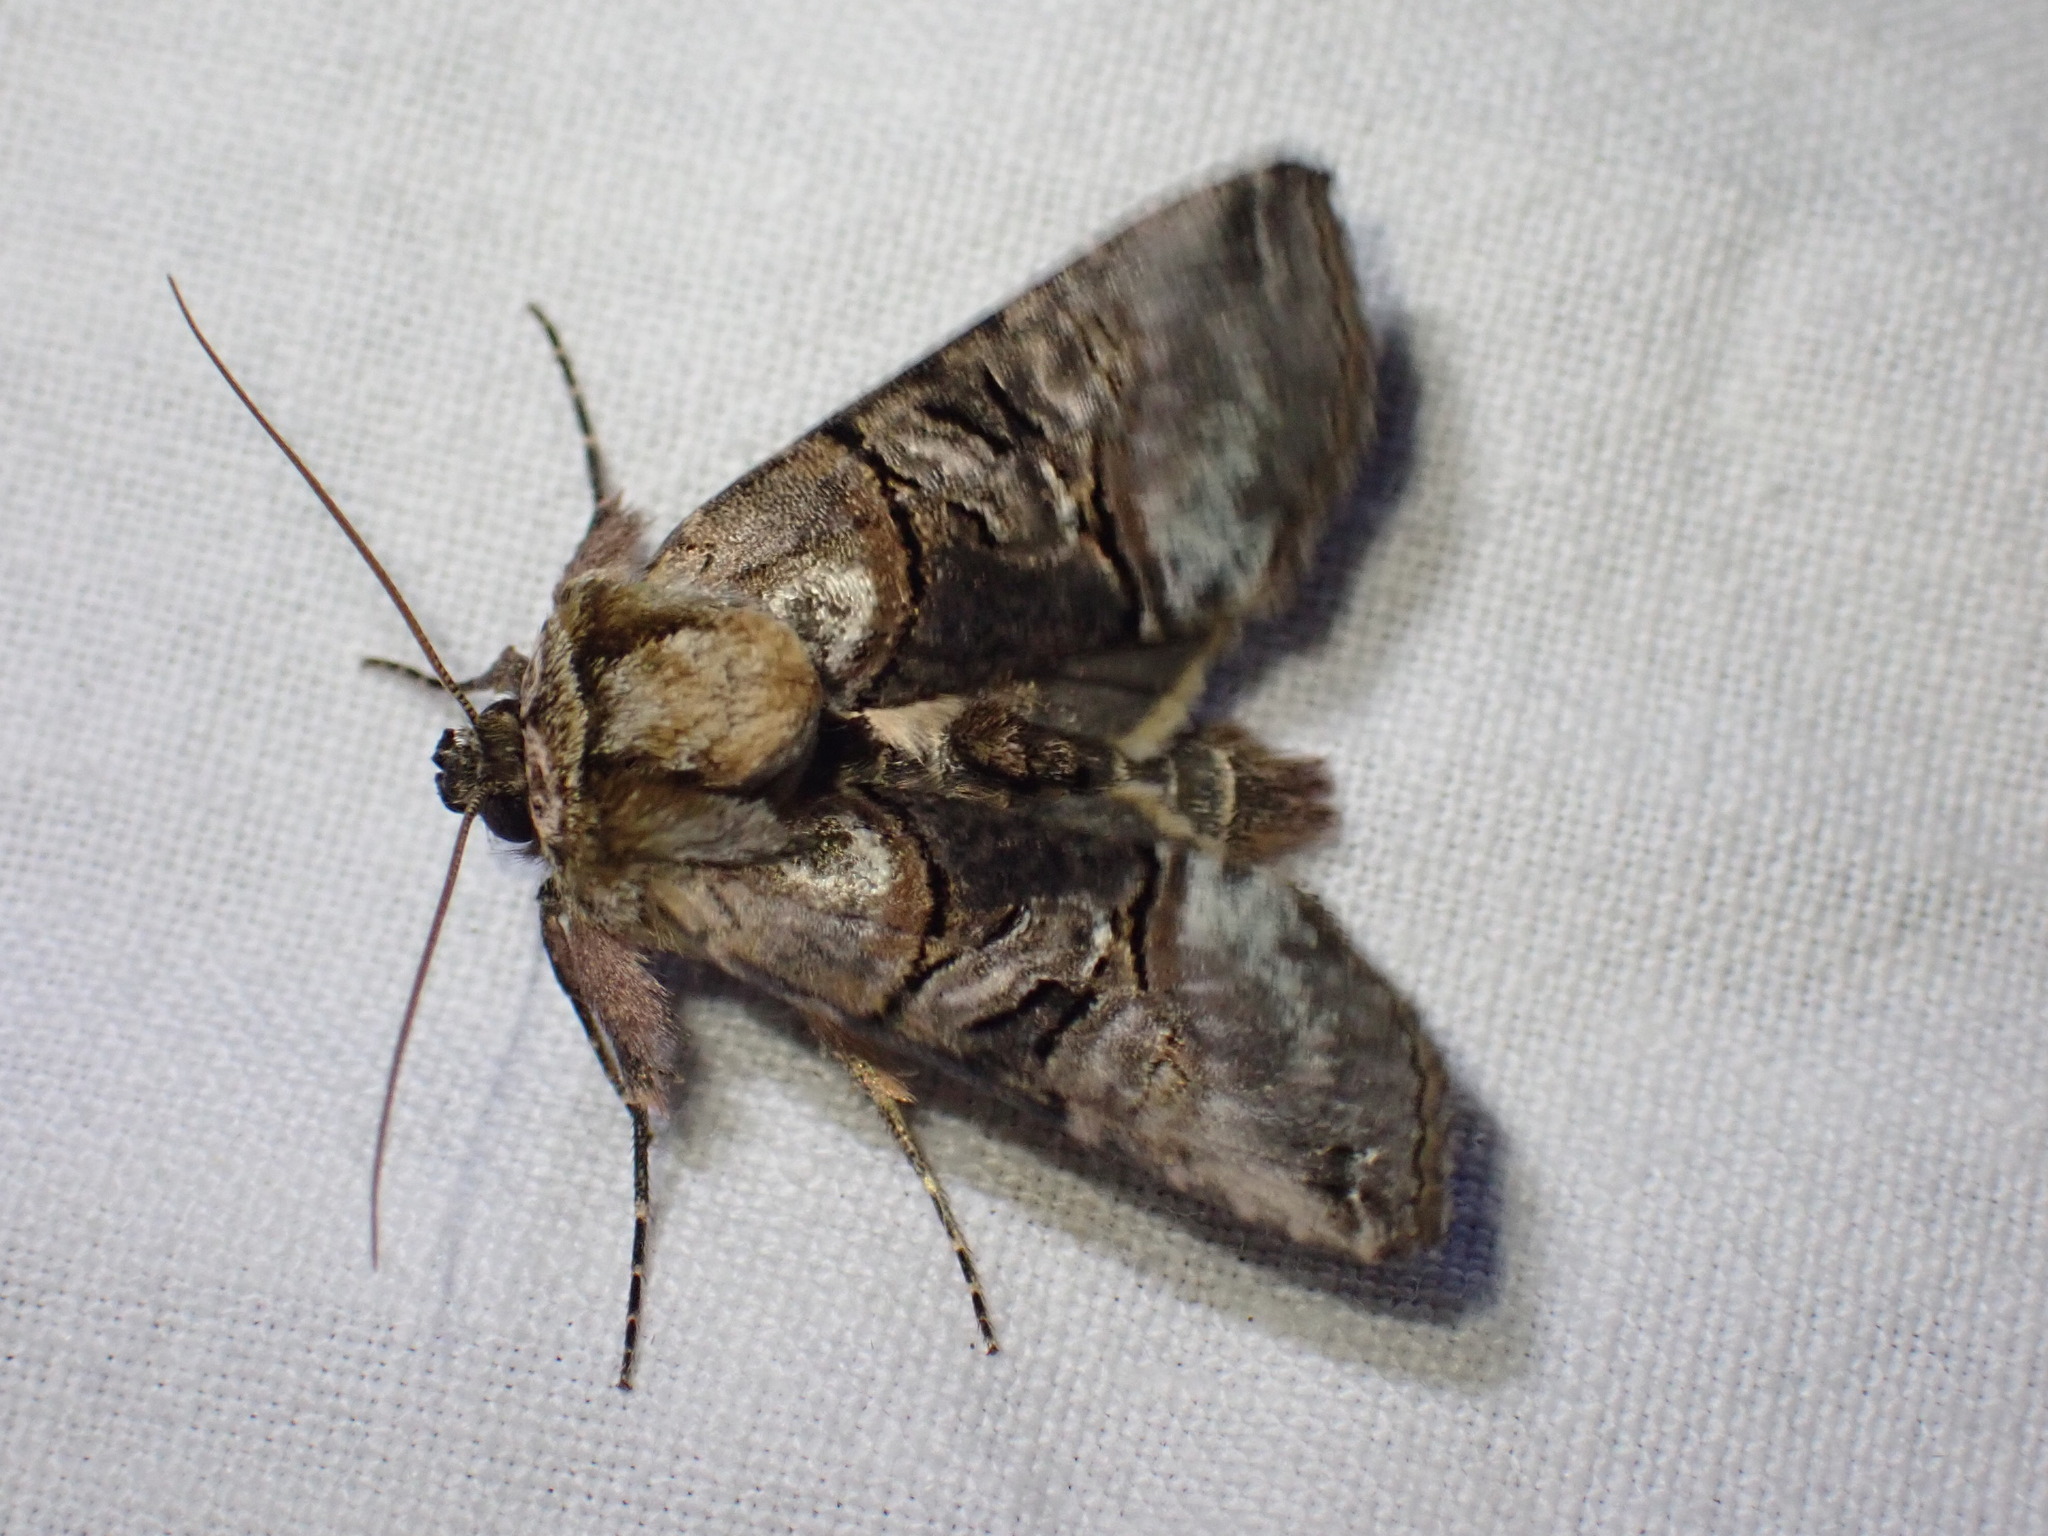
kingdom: Animalia
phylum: Arthropoda
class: Insecta
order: Lepidoptera
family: Noctuidae
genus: Abrostola
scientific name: Abrostola tripartita
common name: Spectacle
